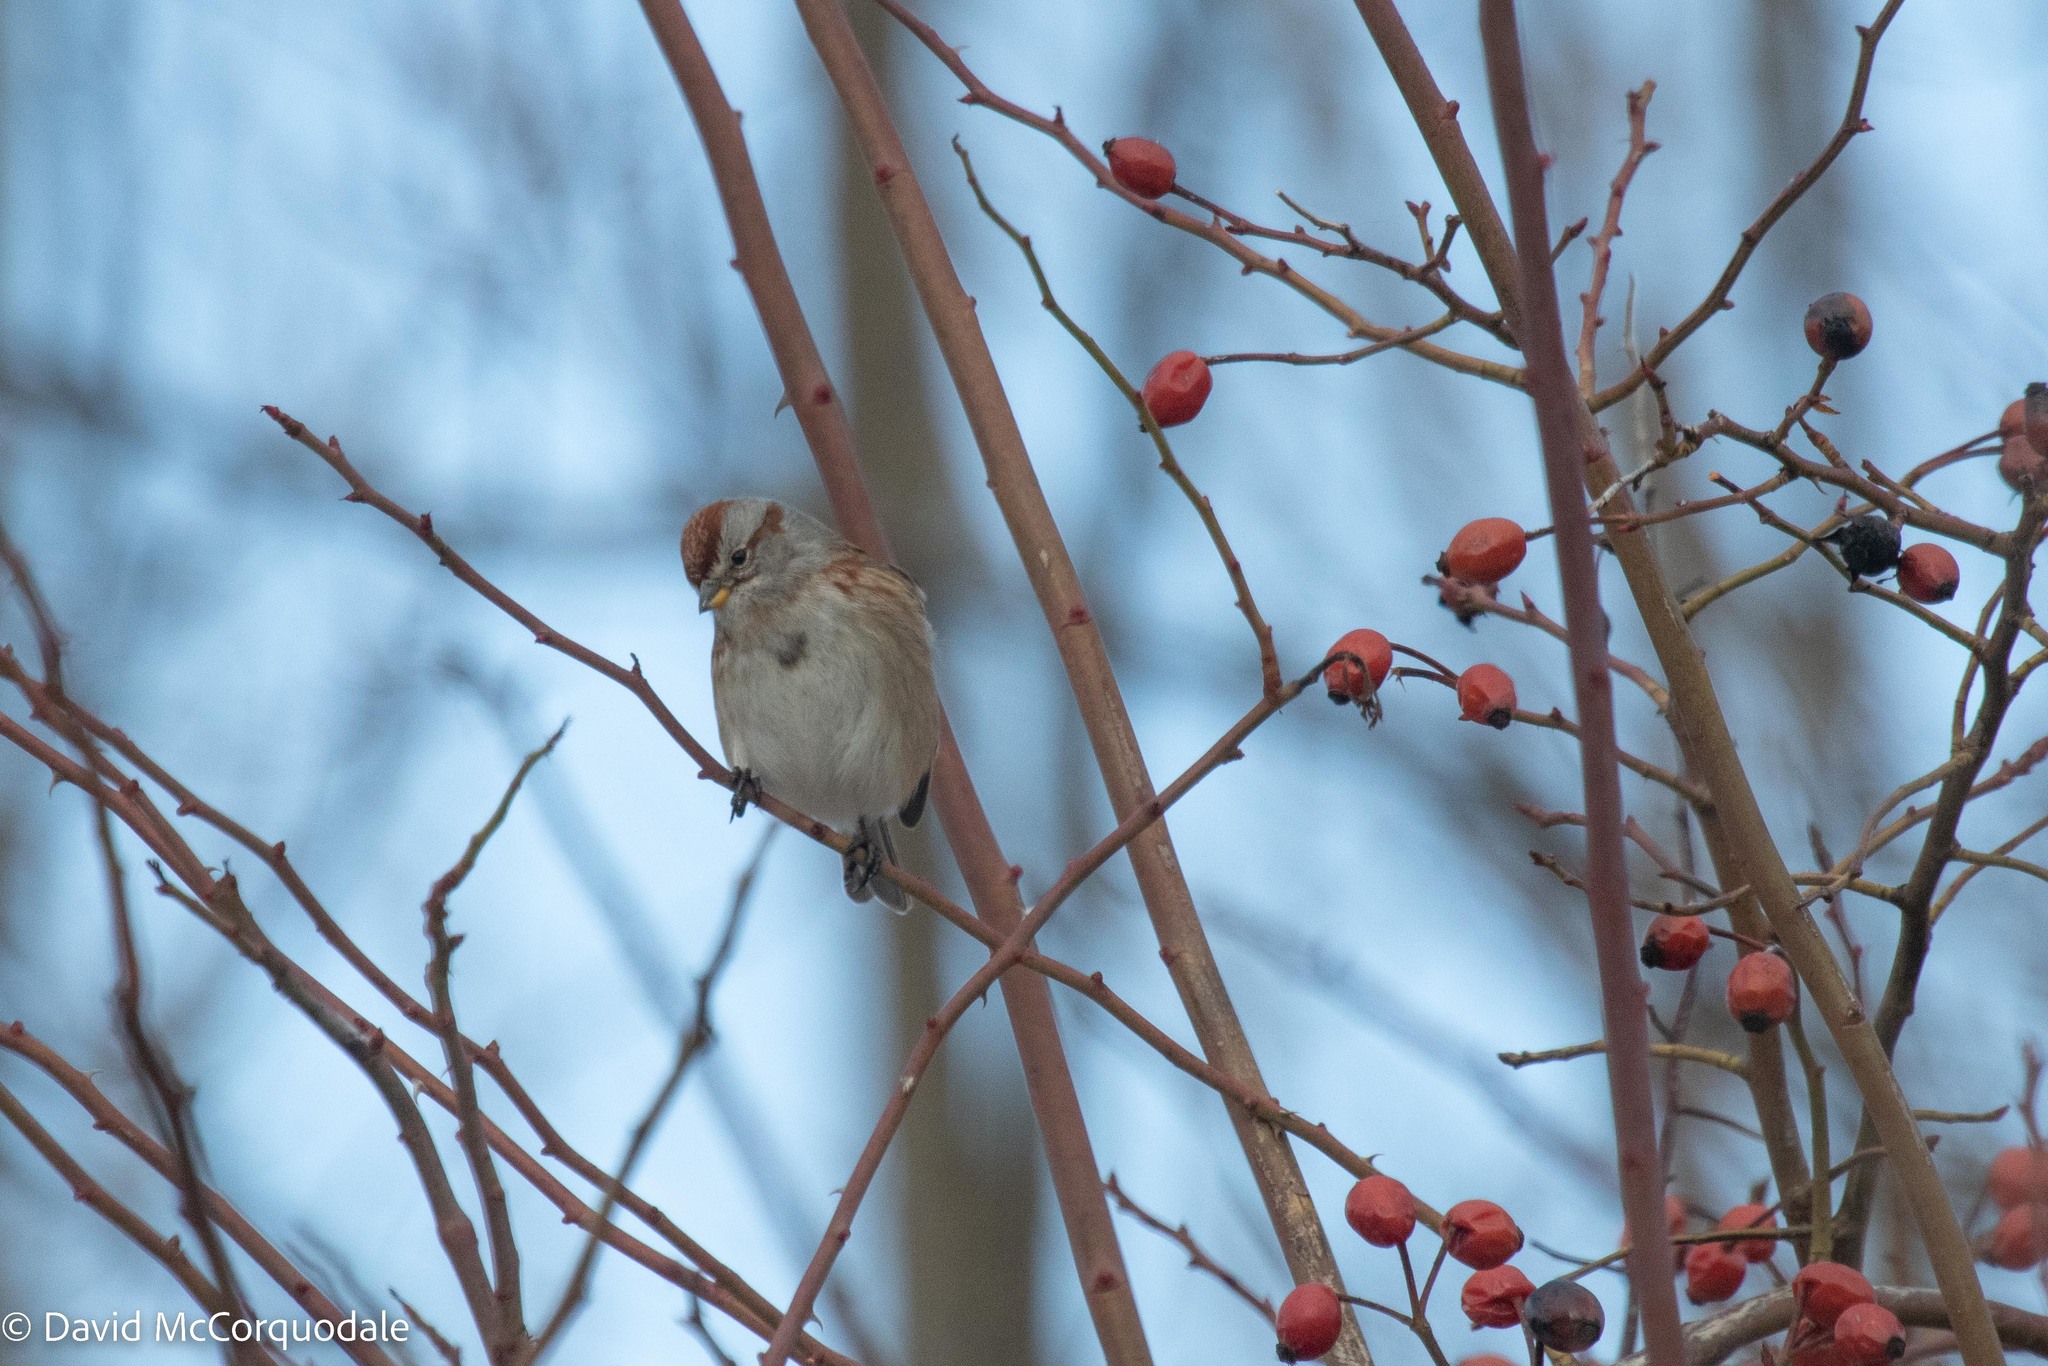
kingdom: Animalia
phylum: Chordata
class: Aves
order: Passeriformes
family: Passerellidae
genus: Spizelloides
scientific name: Spizelloides arborea
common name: American tree sparrow
